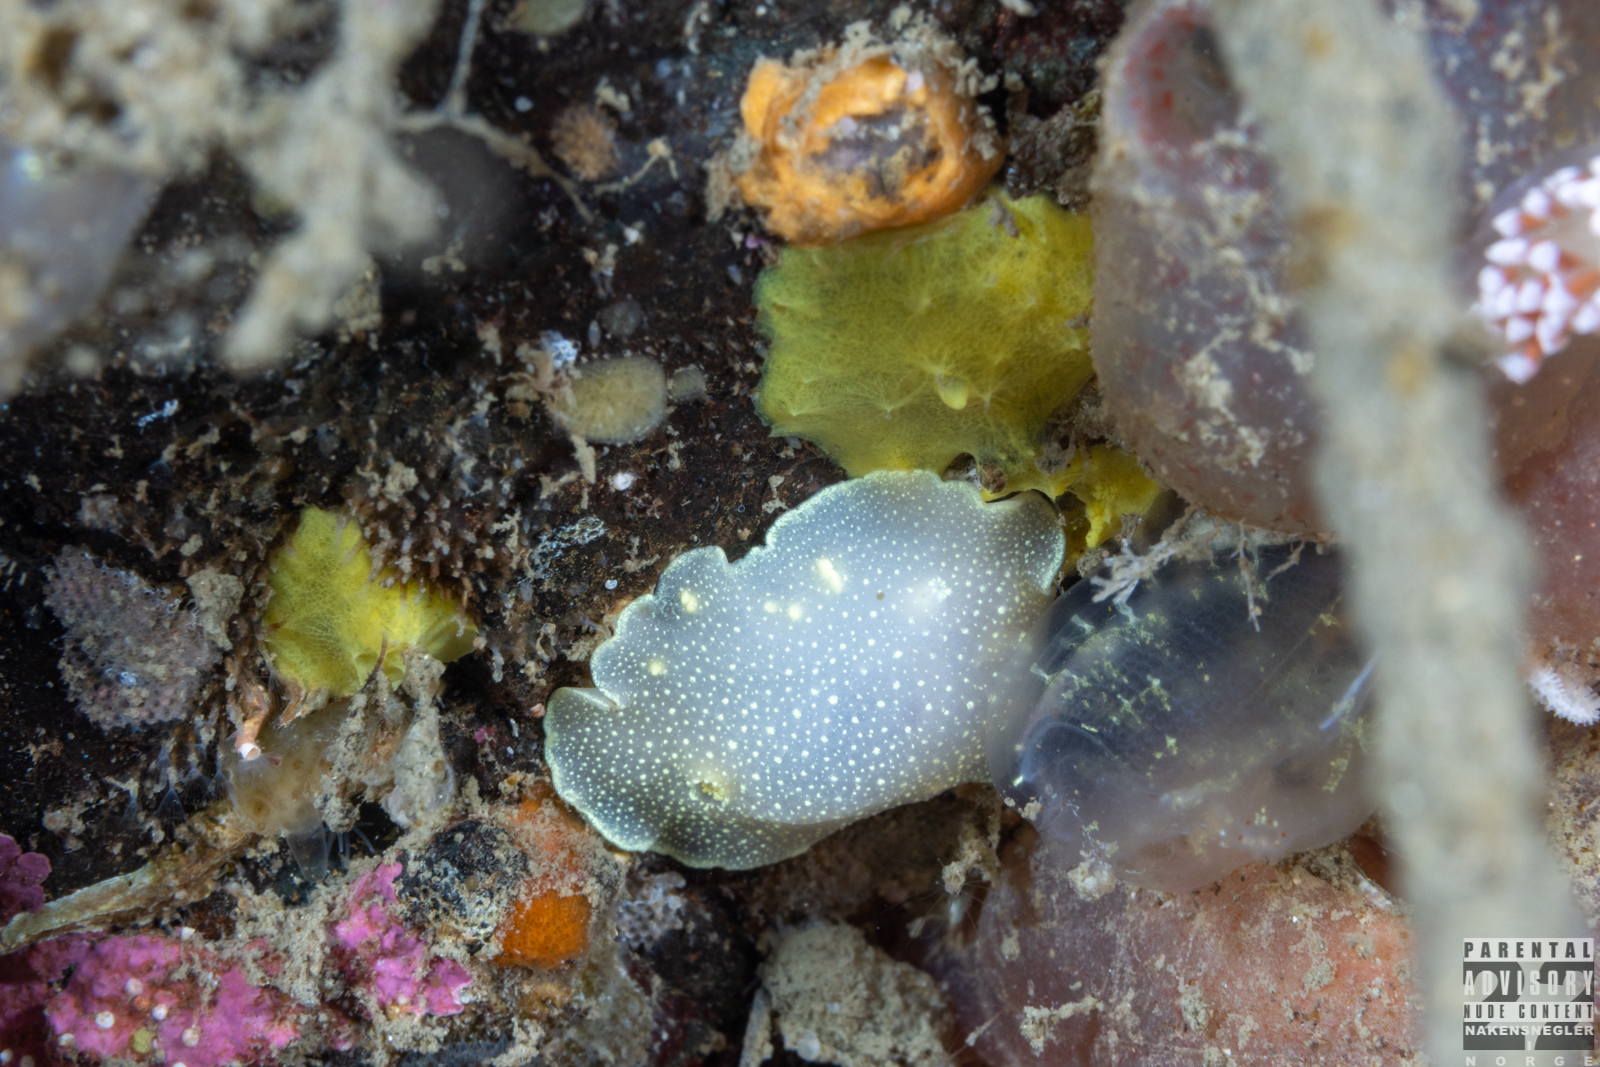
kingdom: Animalia
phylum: Mollusca
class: Gastropoda
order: Nudibranchia
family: Cadlinidae
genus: Cadlina
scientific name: Cadlina laevis
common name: White atlantic cadlina
